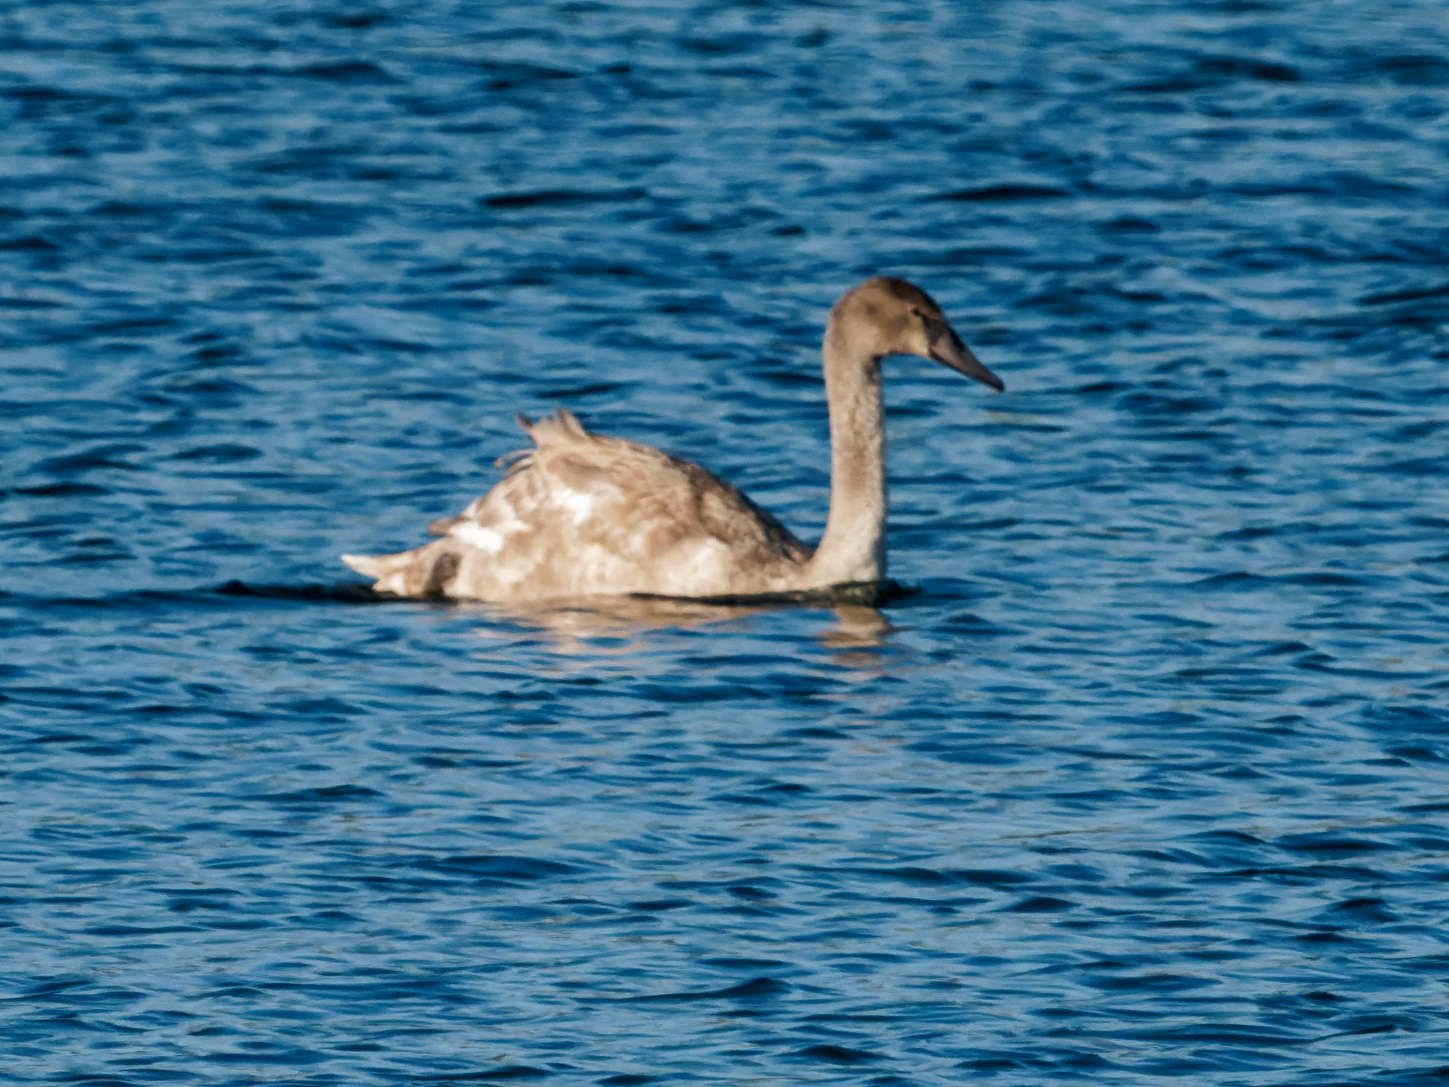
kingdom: Animalia
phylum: Chordata
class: Aves
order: Anseriformes
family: Anatidae
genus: Cygnus
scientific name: Cygnus olor
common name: Mute swan
